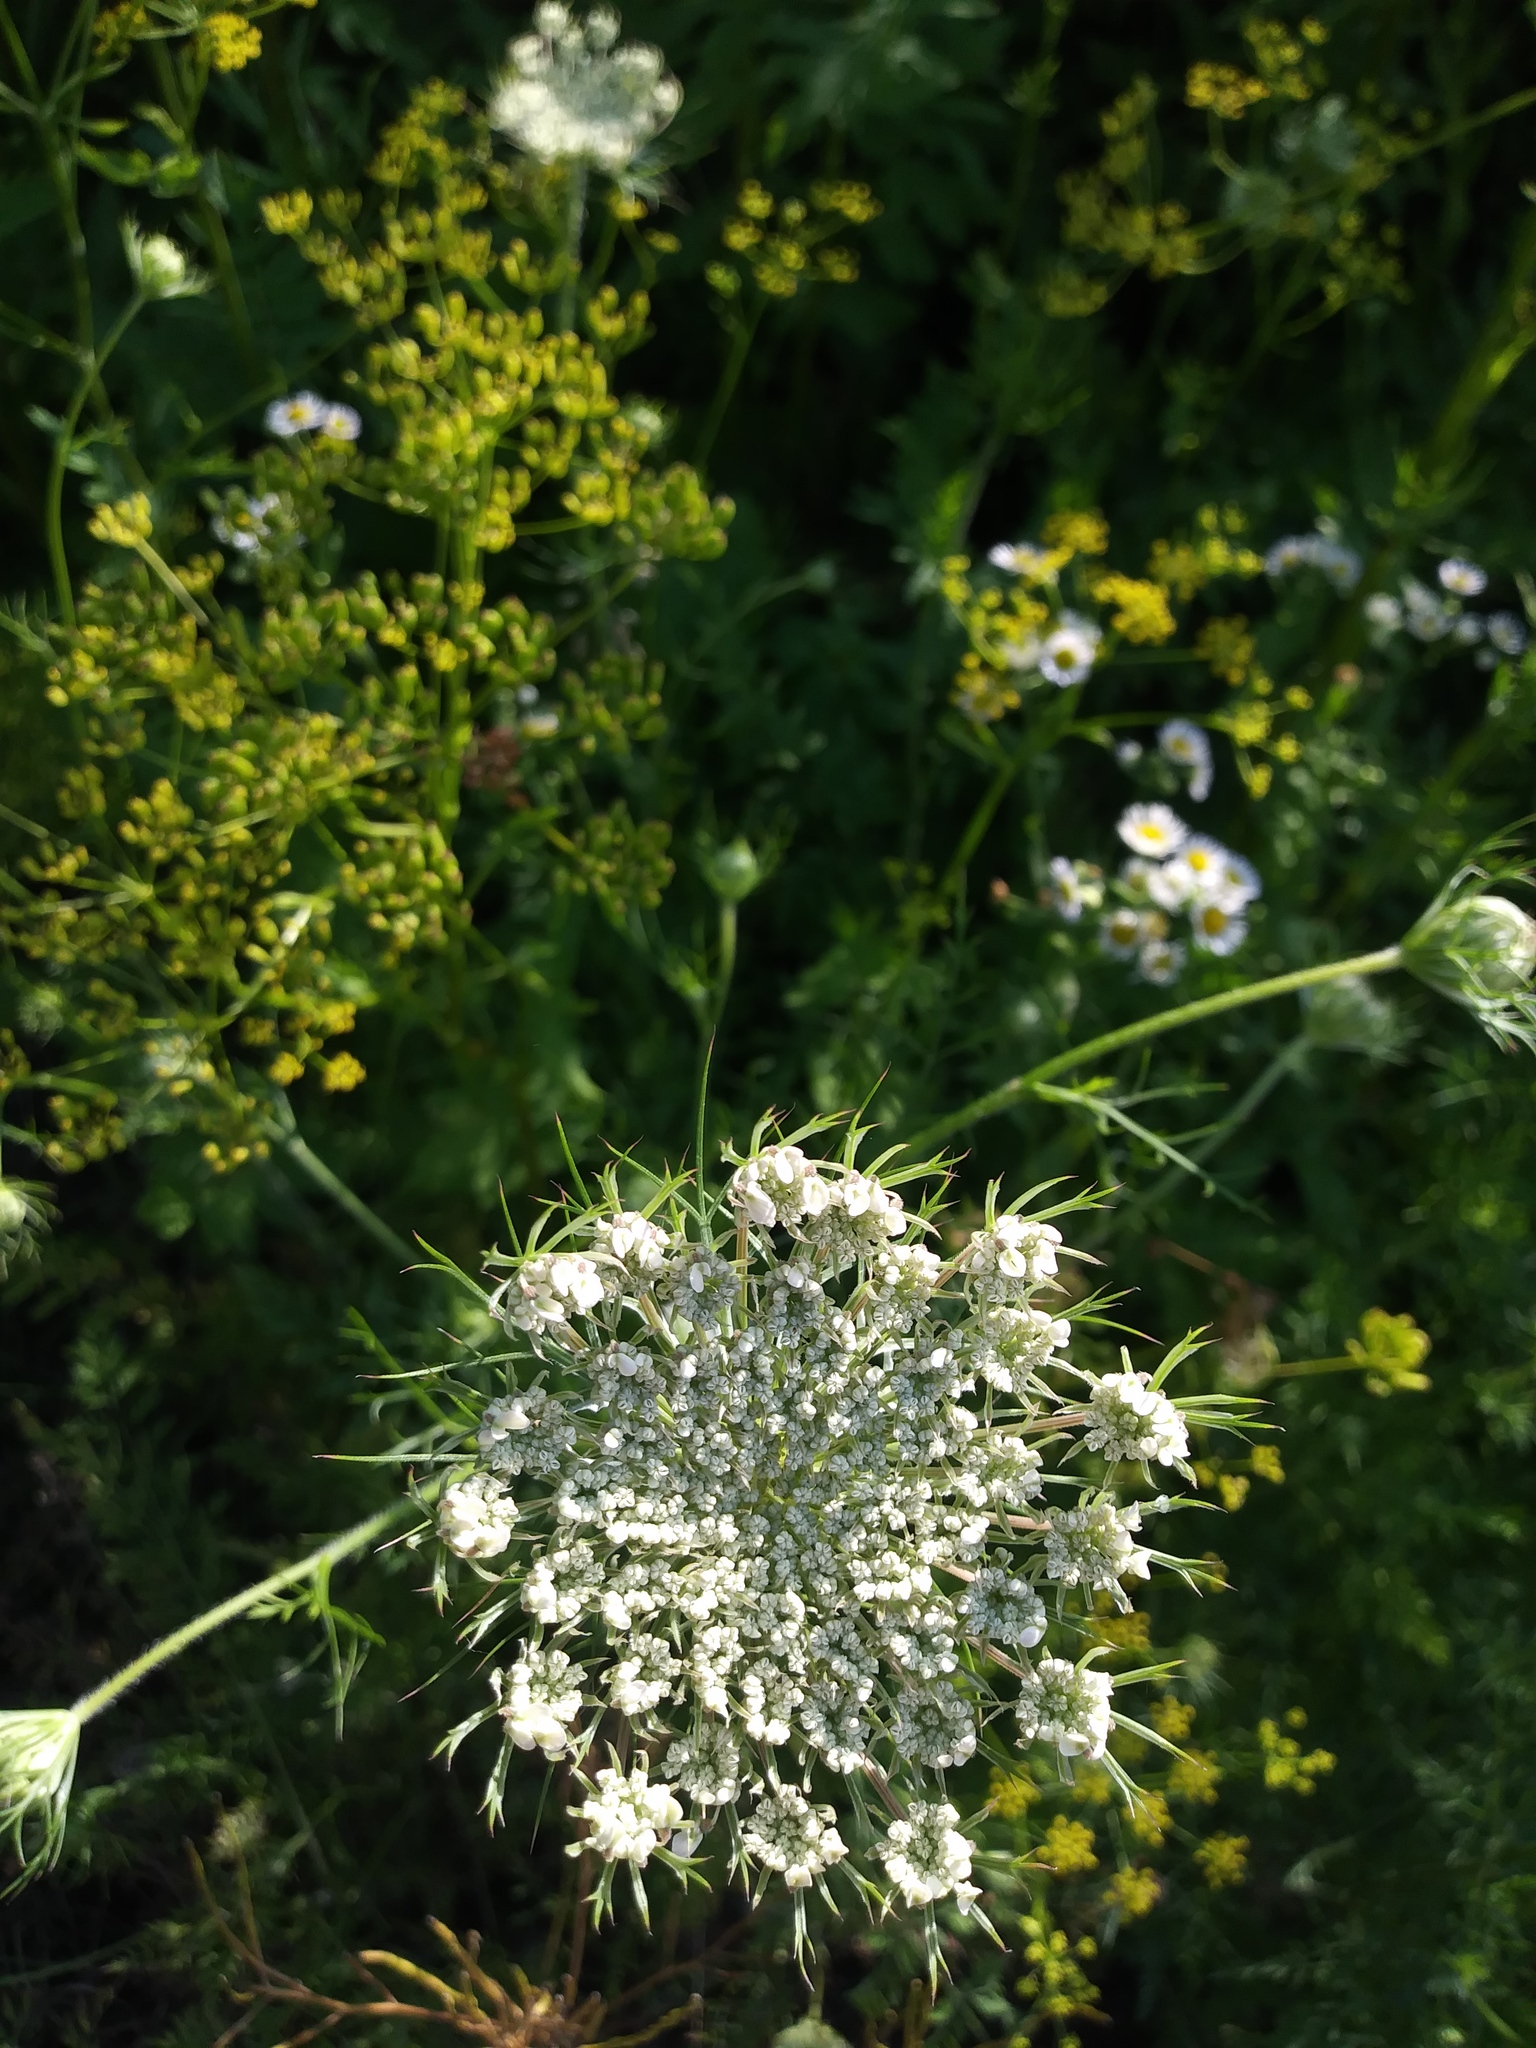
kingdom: Plantae
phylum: Tracheophyta
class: Magnoliopsida
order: Apiales
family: Apiaceae
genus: Daucus
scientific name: Daucus carota
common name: Wild carrot
